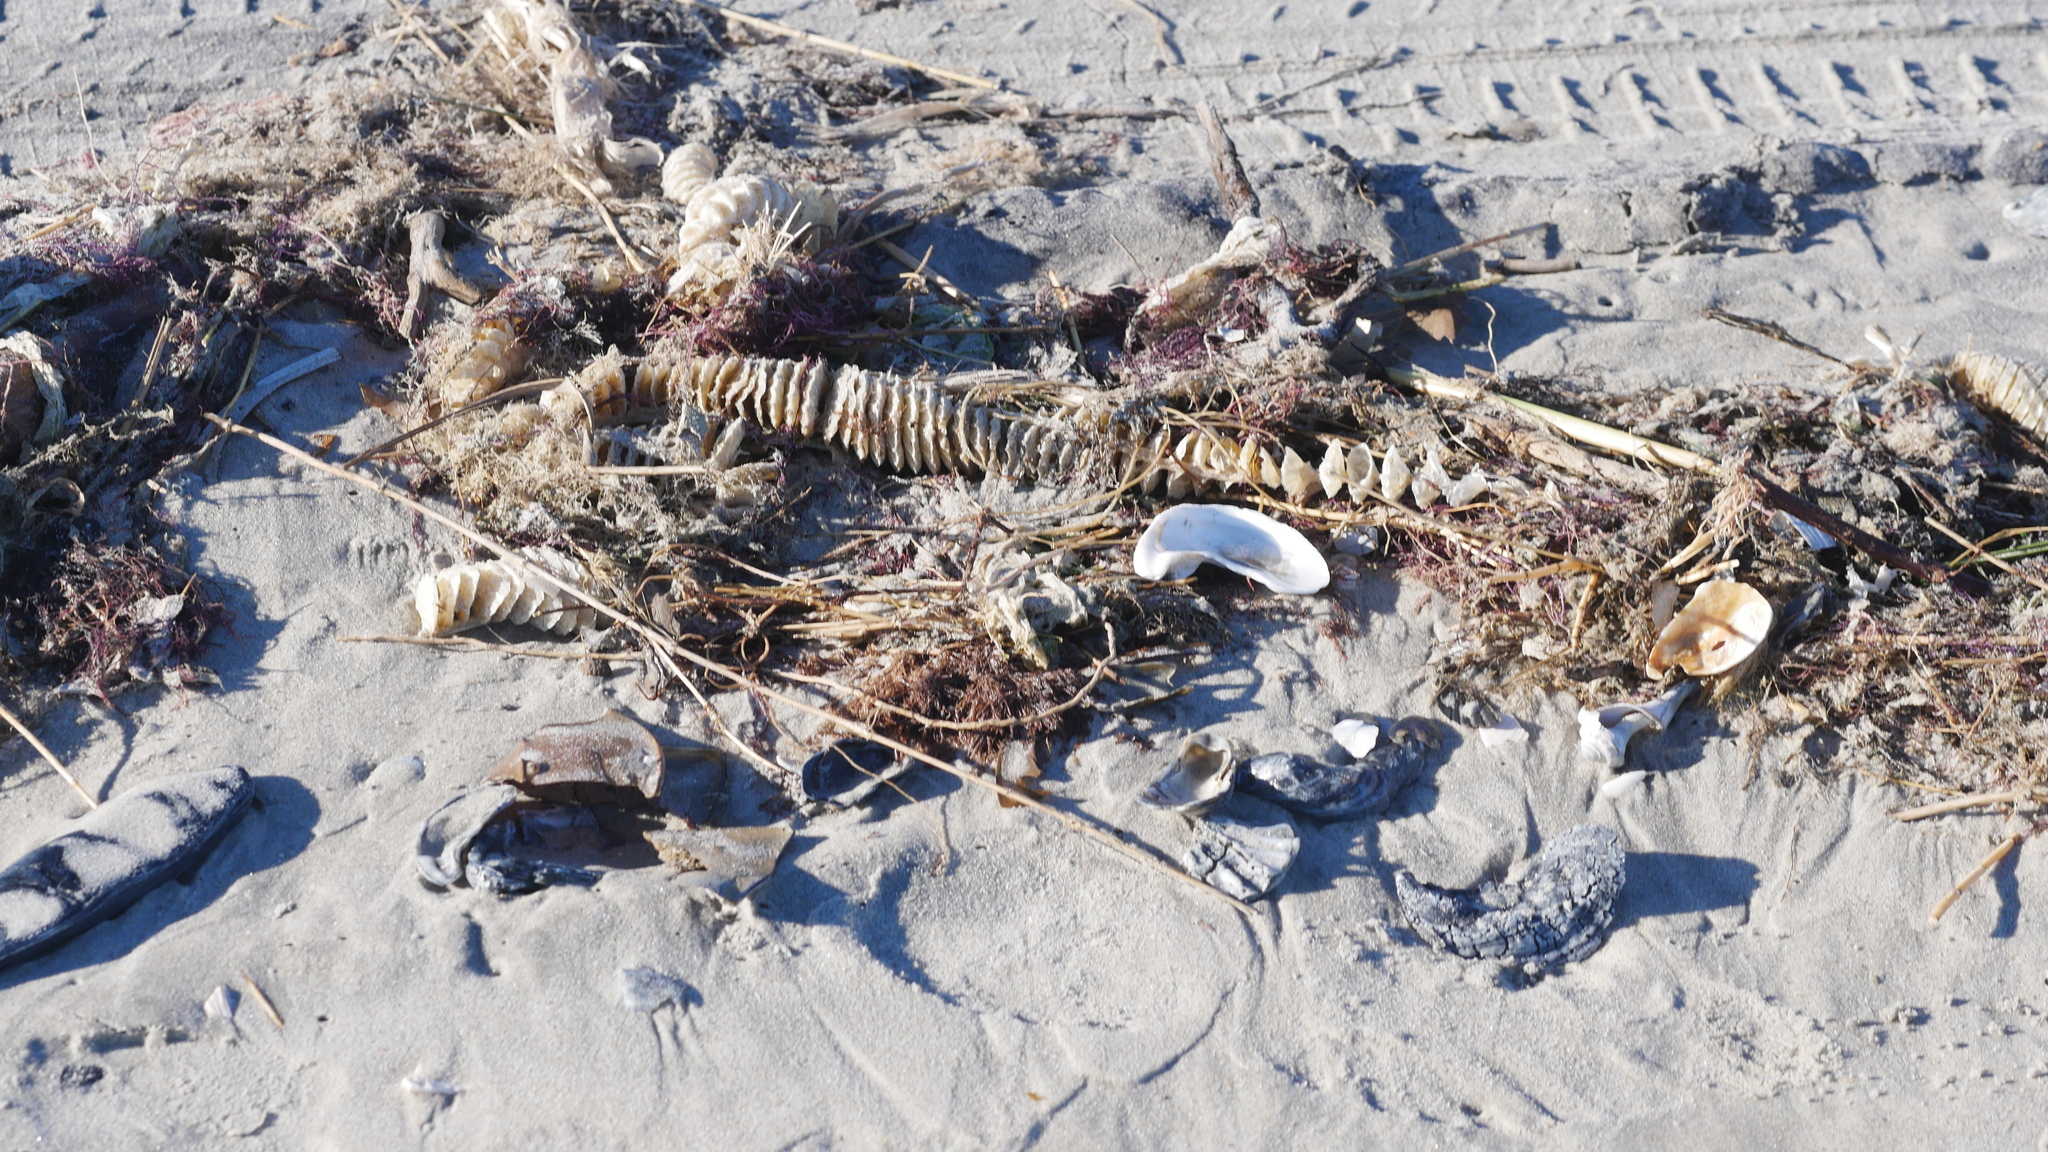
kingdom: Animalia
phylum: Mollusca
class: Gastropoda
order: Neogastropoda
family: Busyconidae
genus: Busycotypus
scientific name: Busycotypus canaliculatus
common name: Channeled whelk
